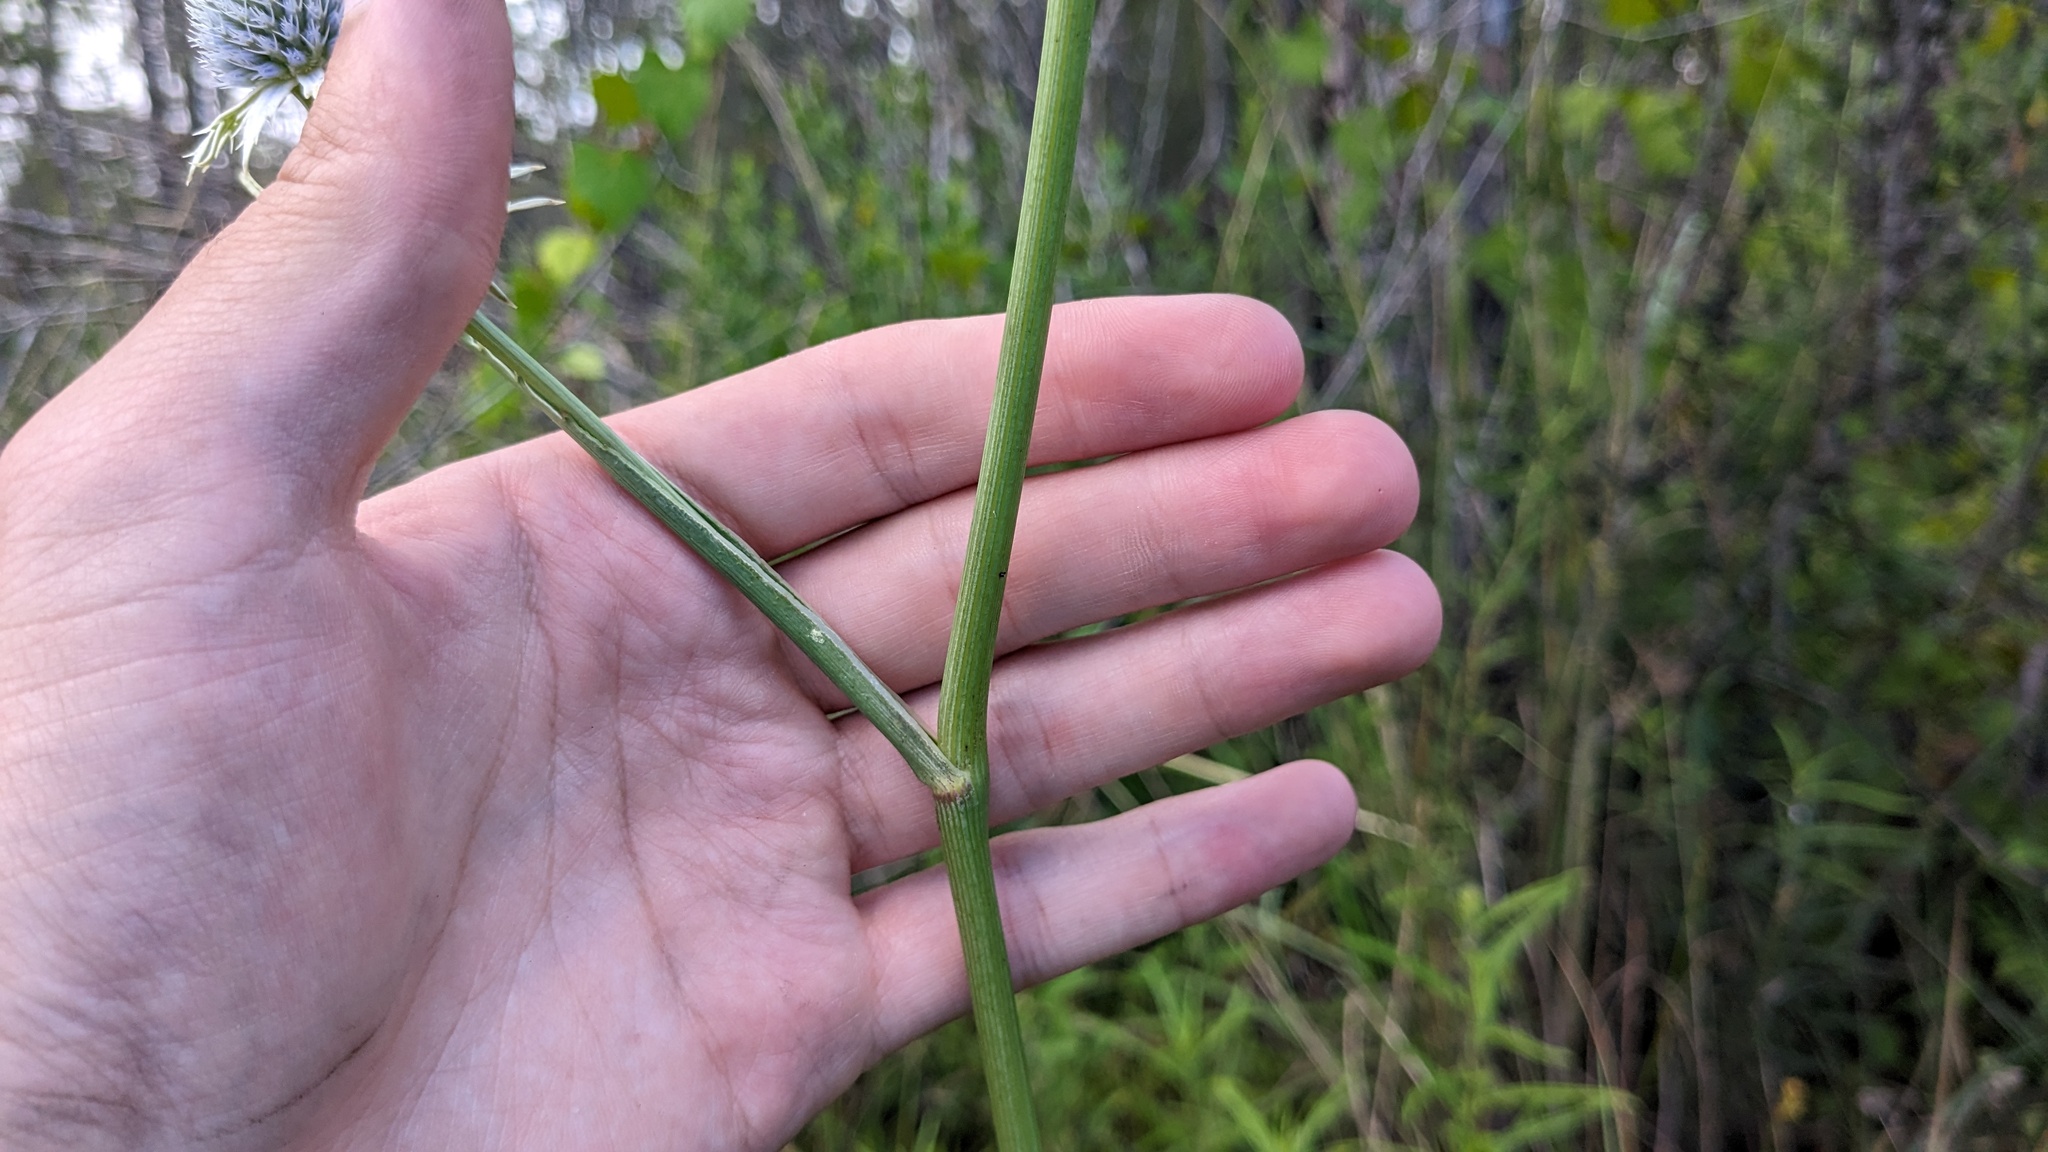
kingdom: Plantae
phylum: Tracheophyta
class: Magnoliopsida
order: Apiales
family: Apiaceae
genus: Eryngium
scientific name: Eryngium aquaticum
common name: Water eryngo
